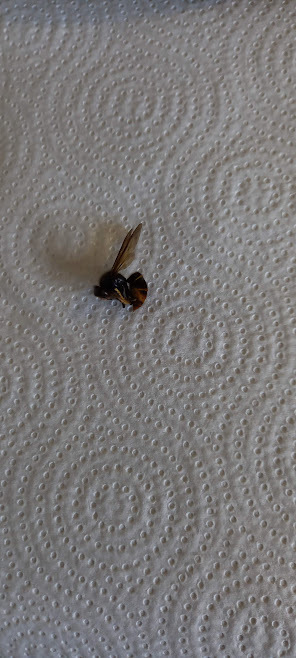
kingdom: Animalia
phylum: Arthropoda
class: Insecta
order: Hymenoptera
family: Vespidae
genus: Vespa
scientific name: Vespa velutina
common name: Asian hornet
